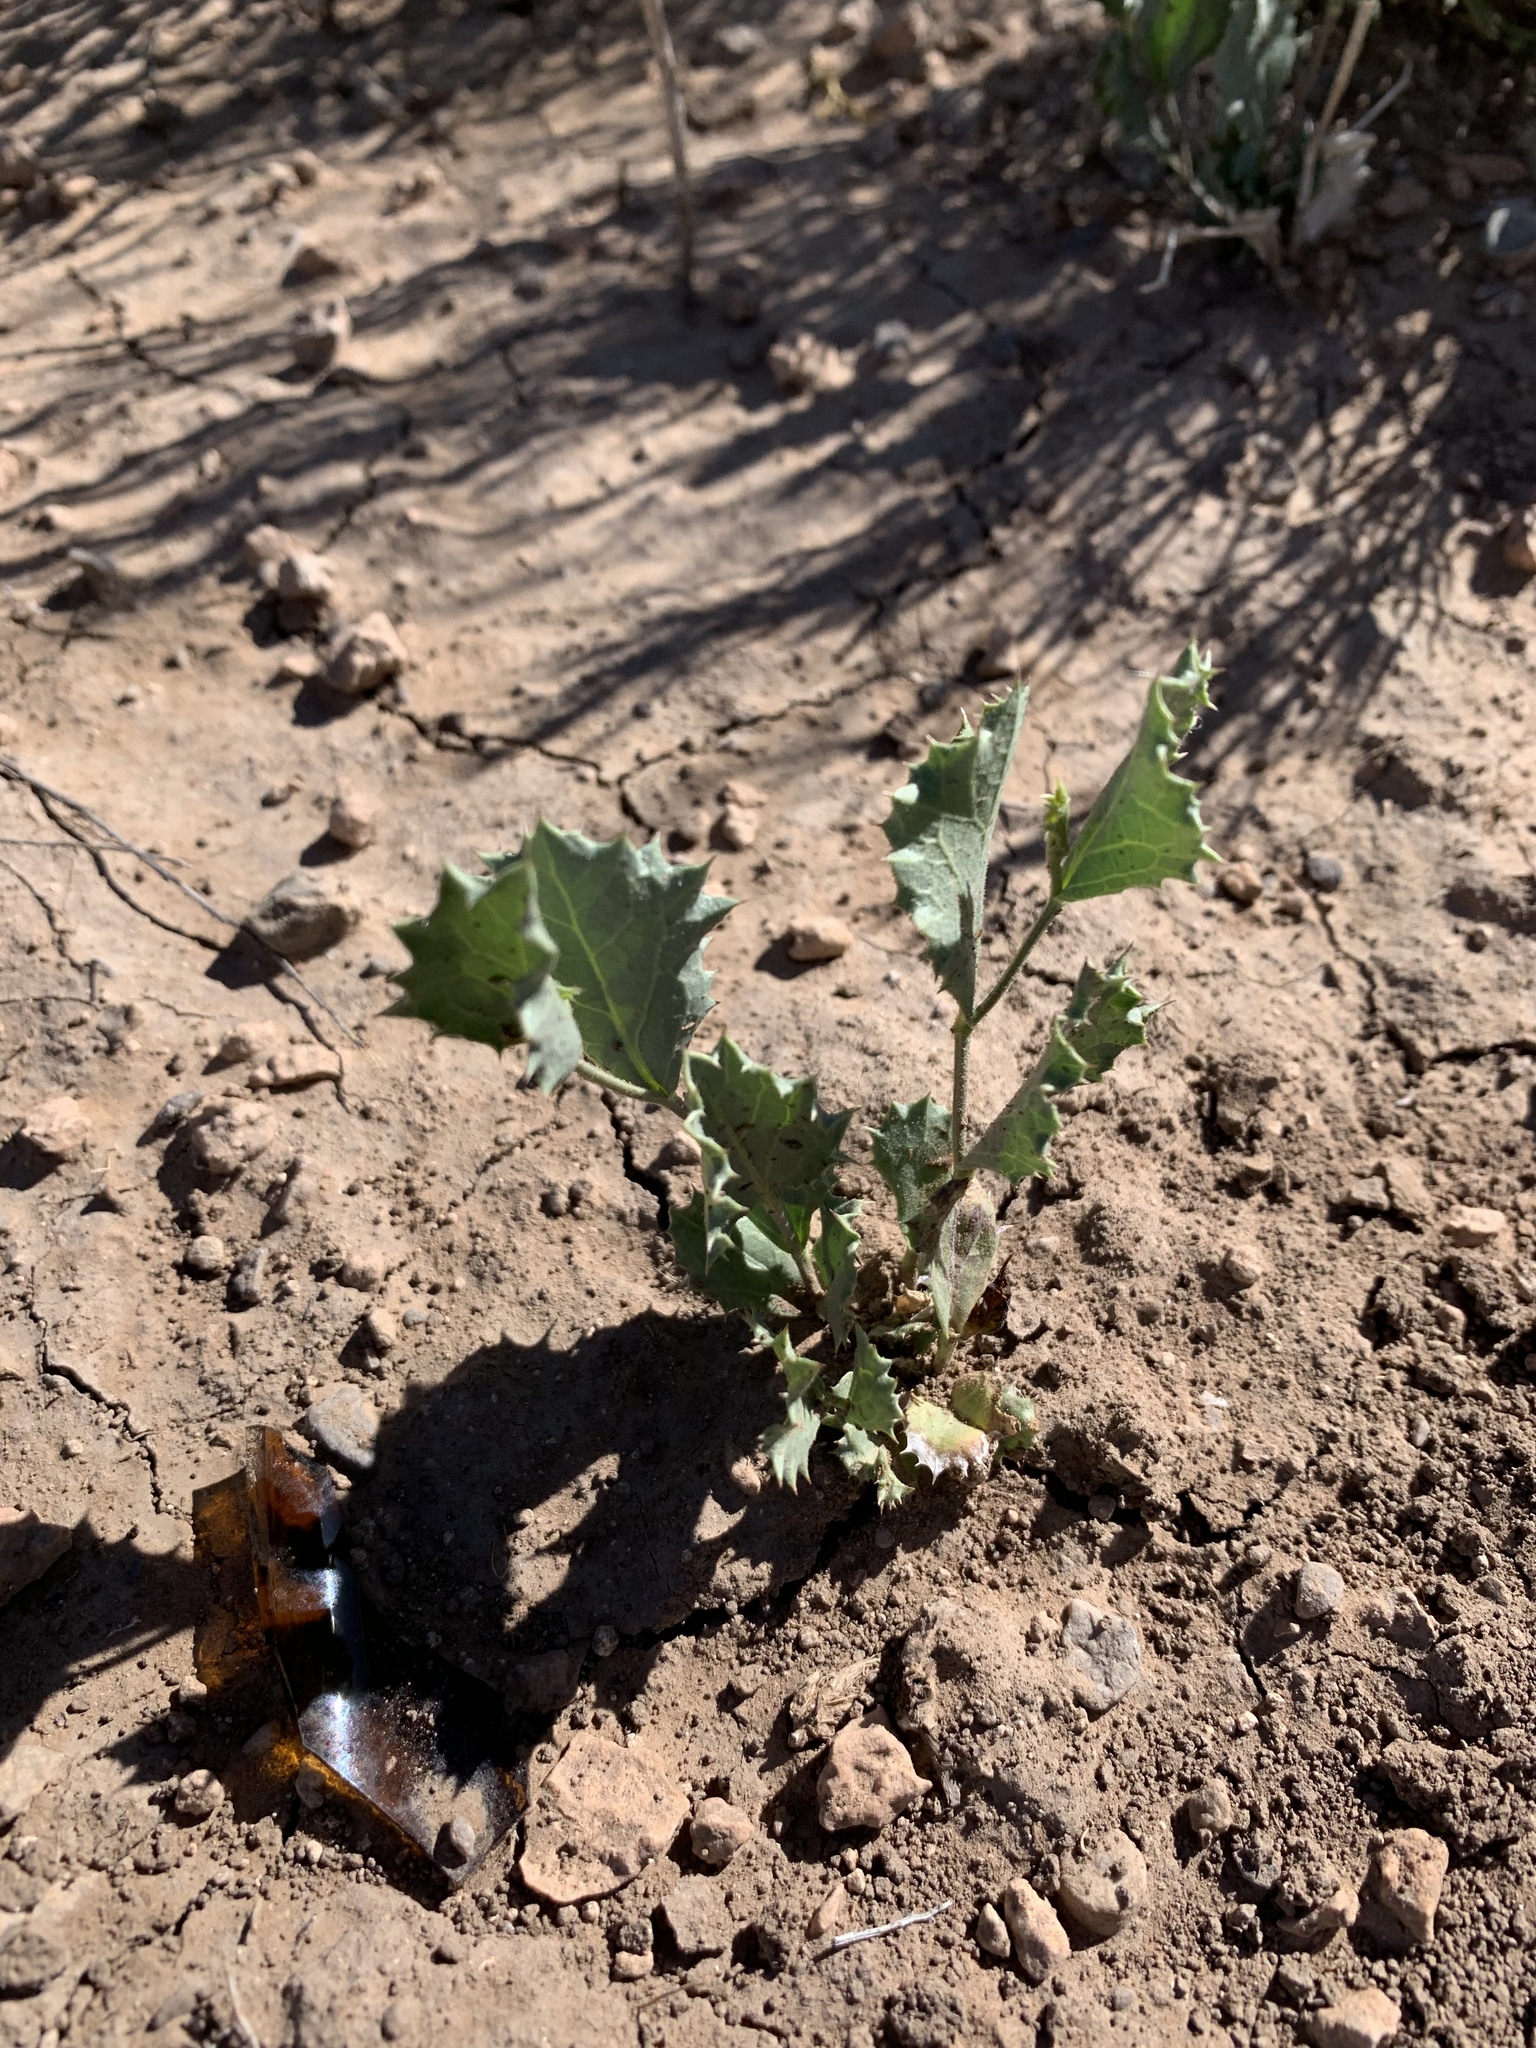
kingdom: Plantae
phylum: Tracheophyta
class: Magnoliopsida
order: Asterales
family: Asteraceae
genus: Acourtia
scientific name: Acourtia nana
